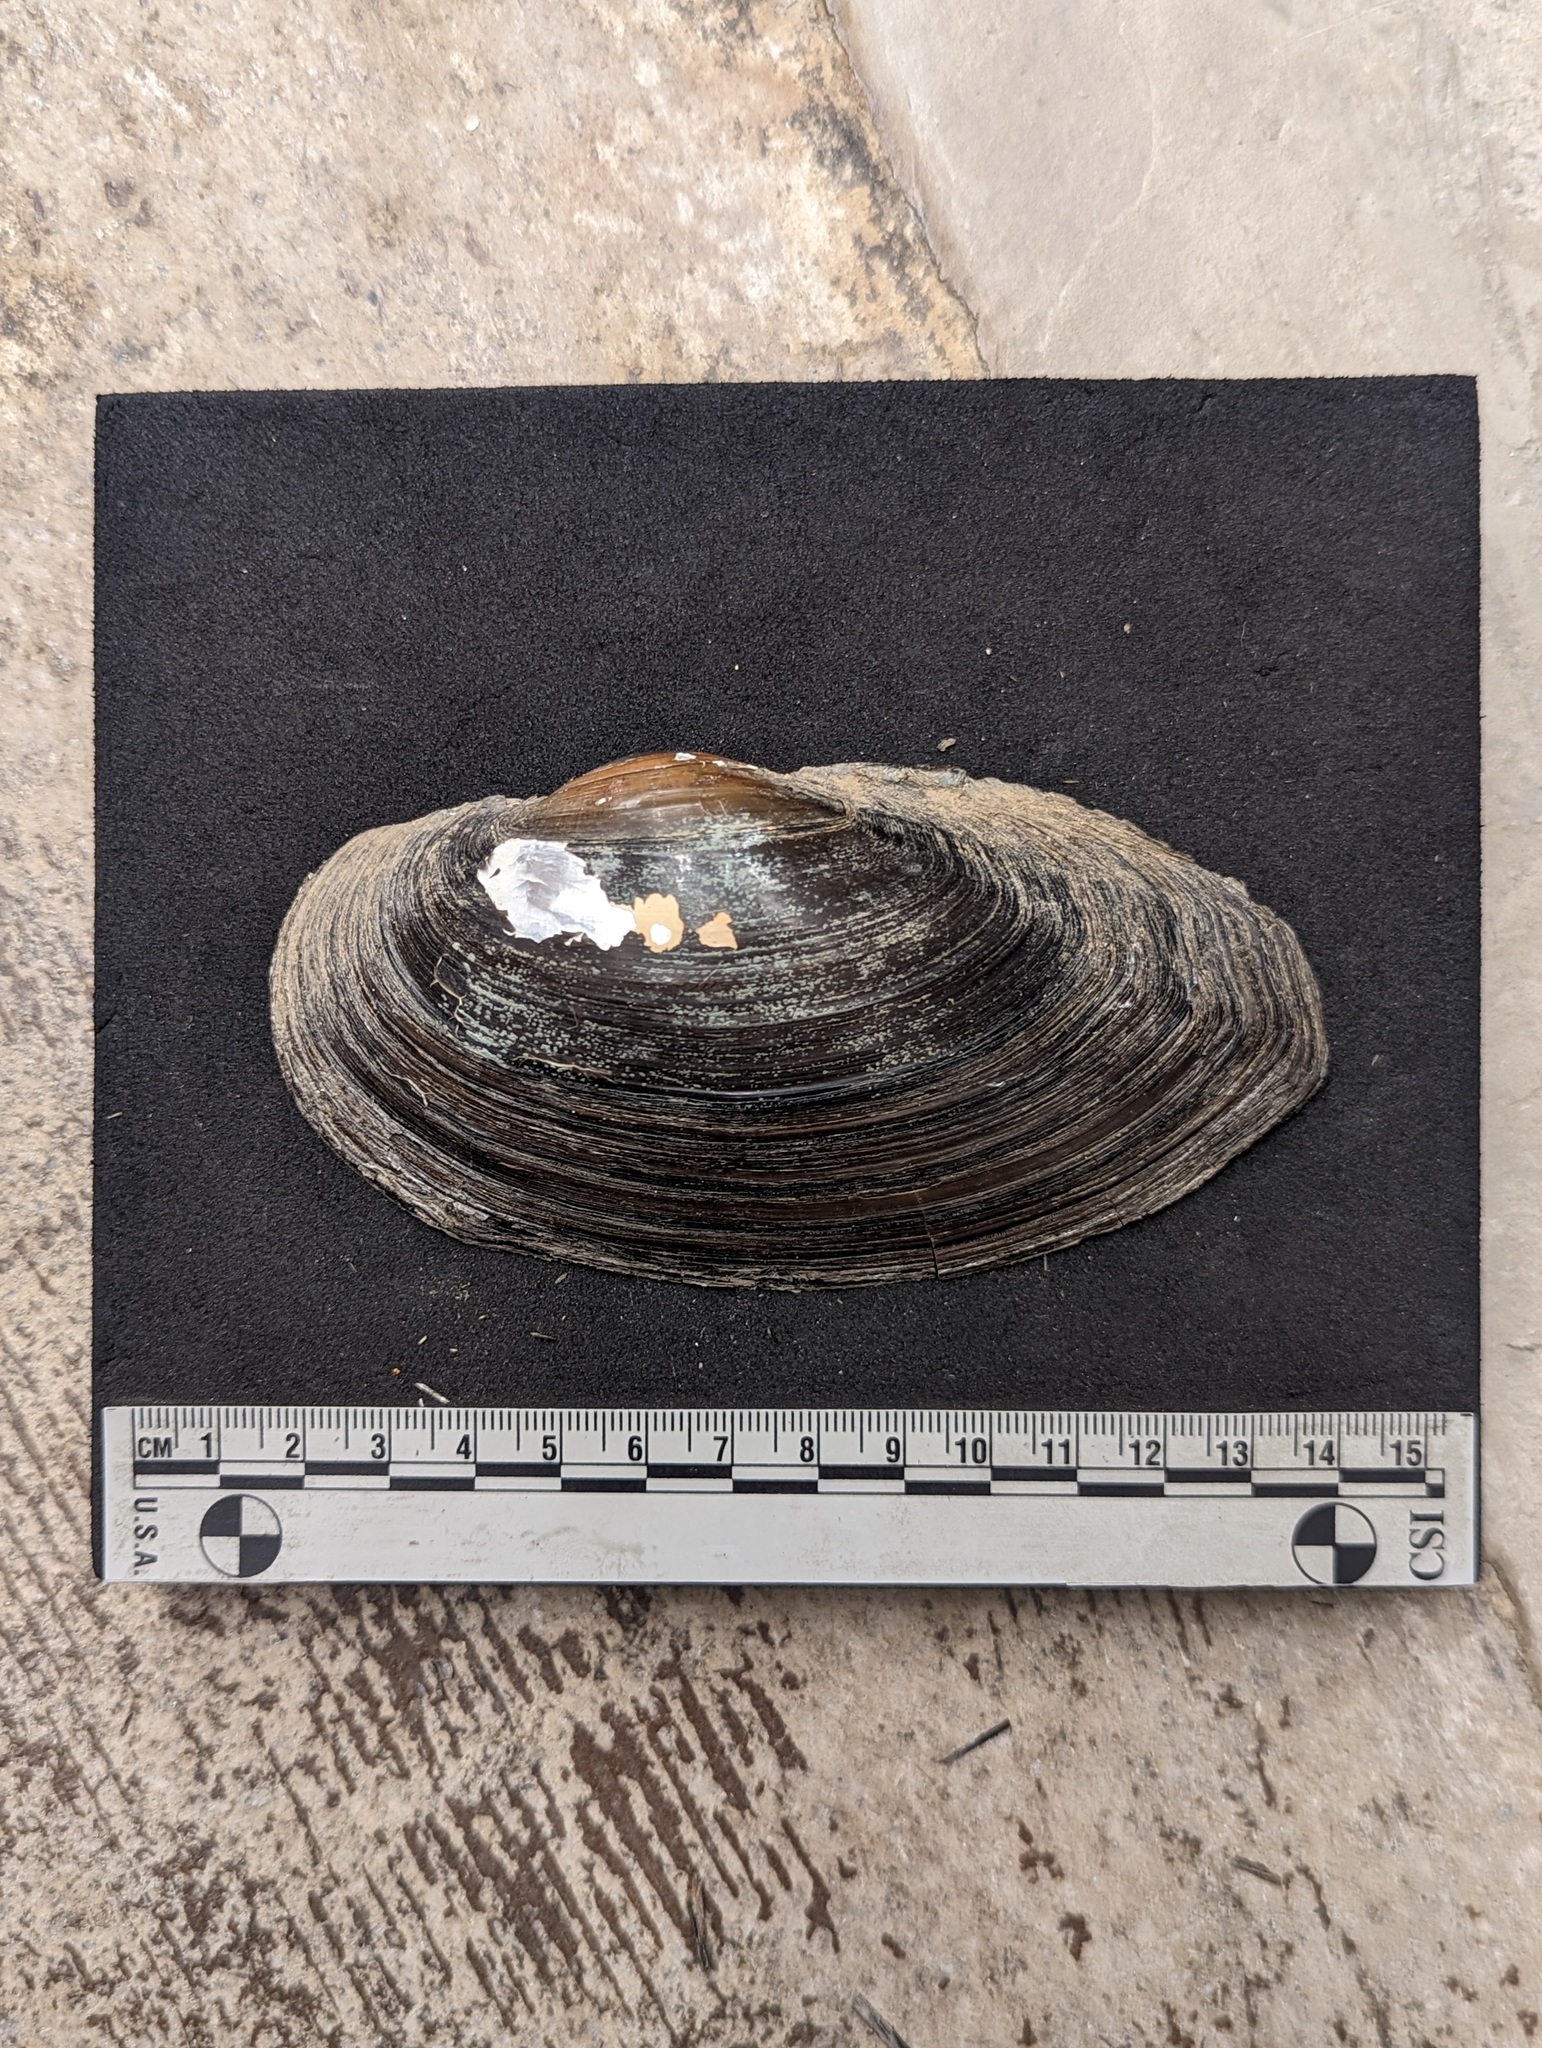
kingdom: Animalia
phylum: Mollusca
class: Bivalvia
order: Unionida
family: Unionidae
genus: Utterbackiana
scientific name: Utterbackiana implicata
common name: Alewife floater
